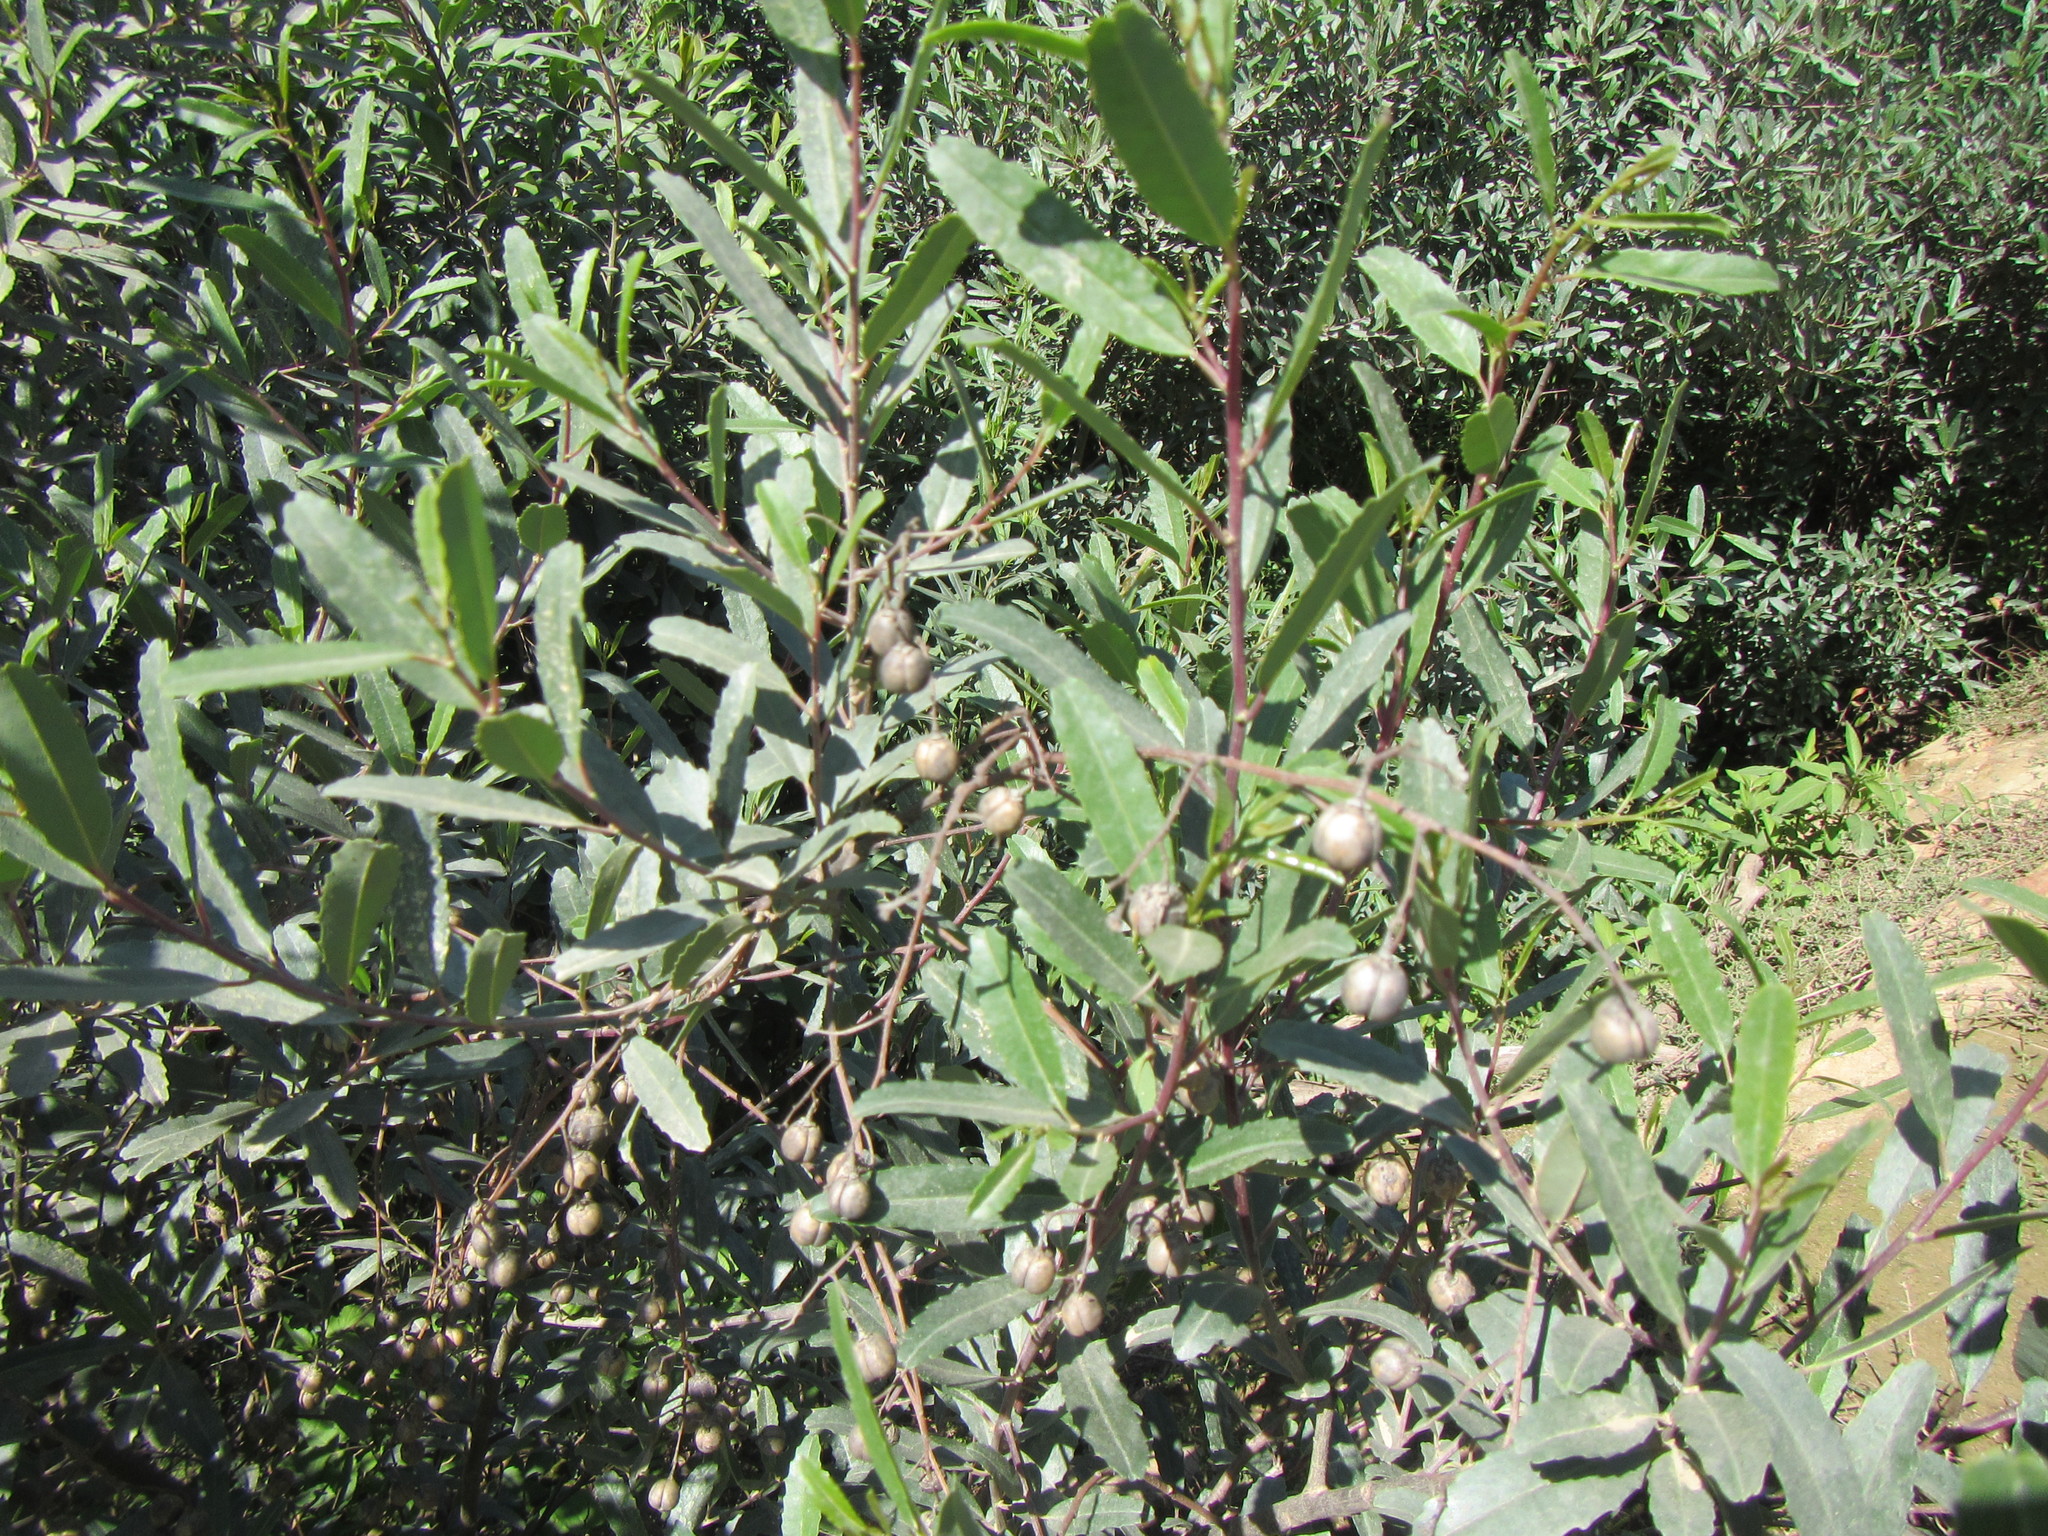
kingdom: Plantae
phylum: Tracheophyta
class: Magnoliopsida
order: Rosales
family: Rhamnaceae
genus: Noltea
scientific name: Noltea africana
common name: Soapbush
